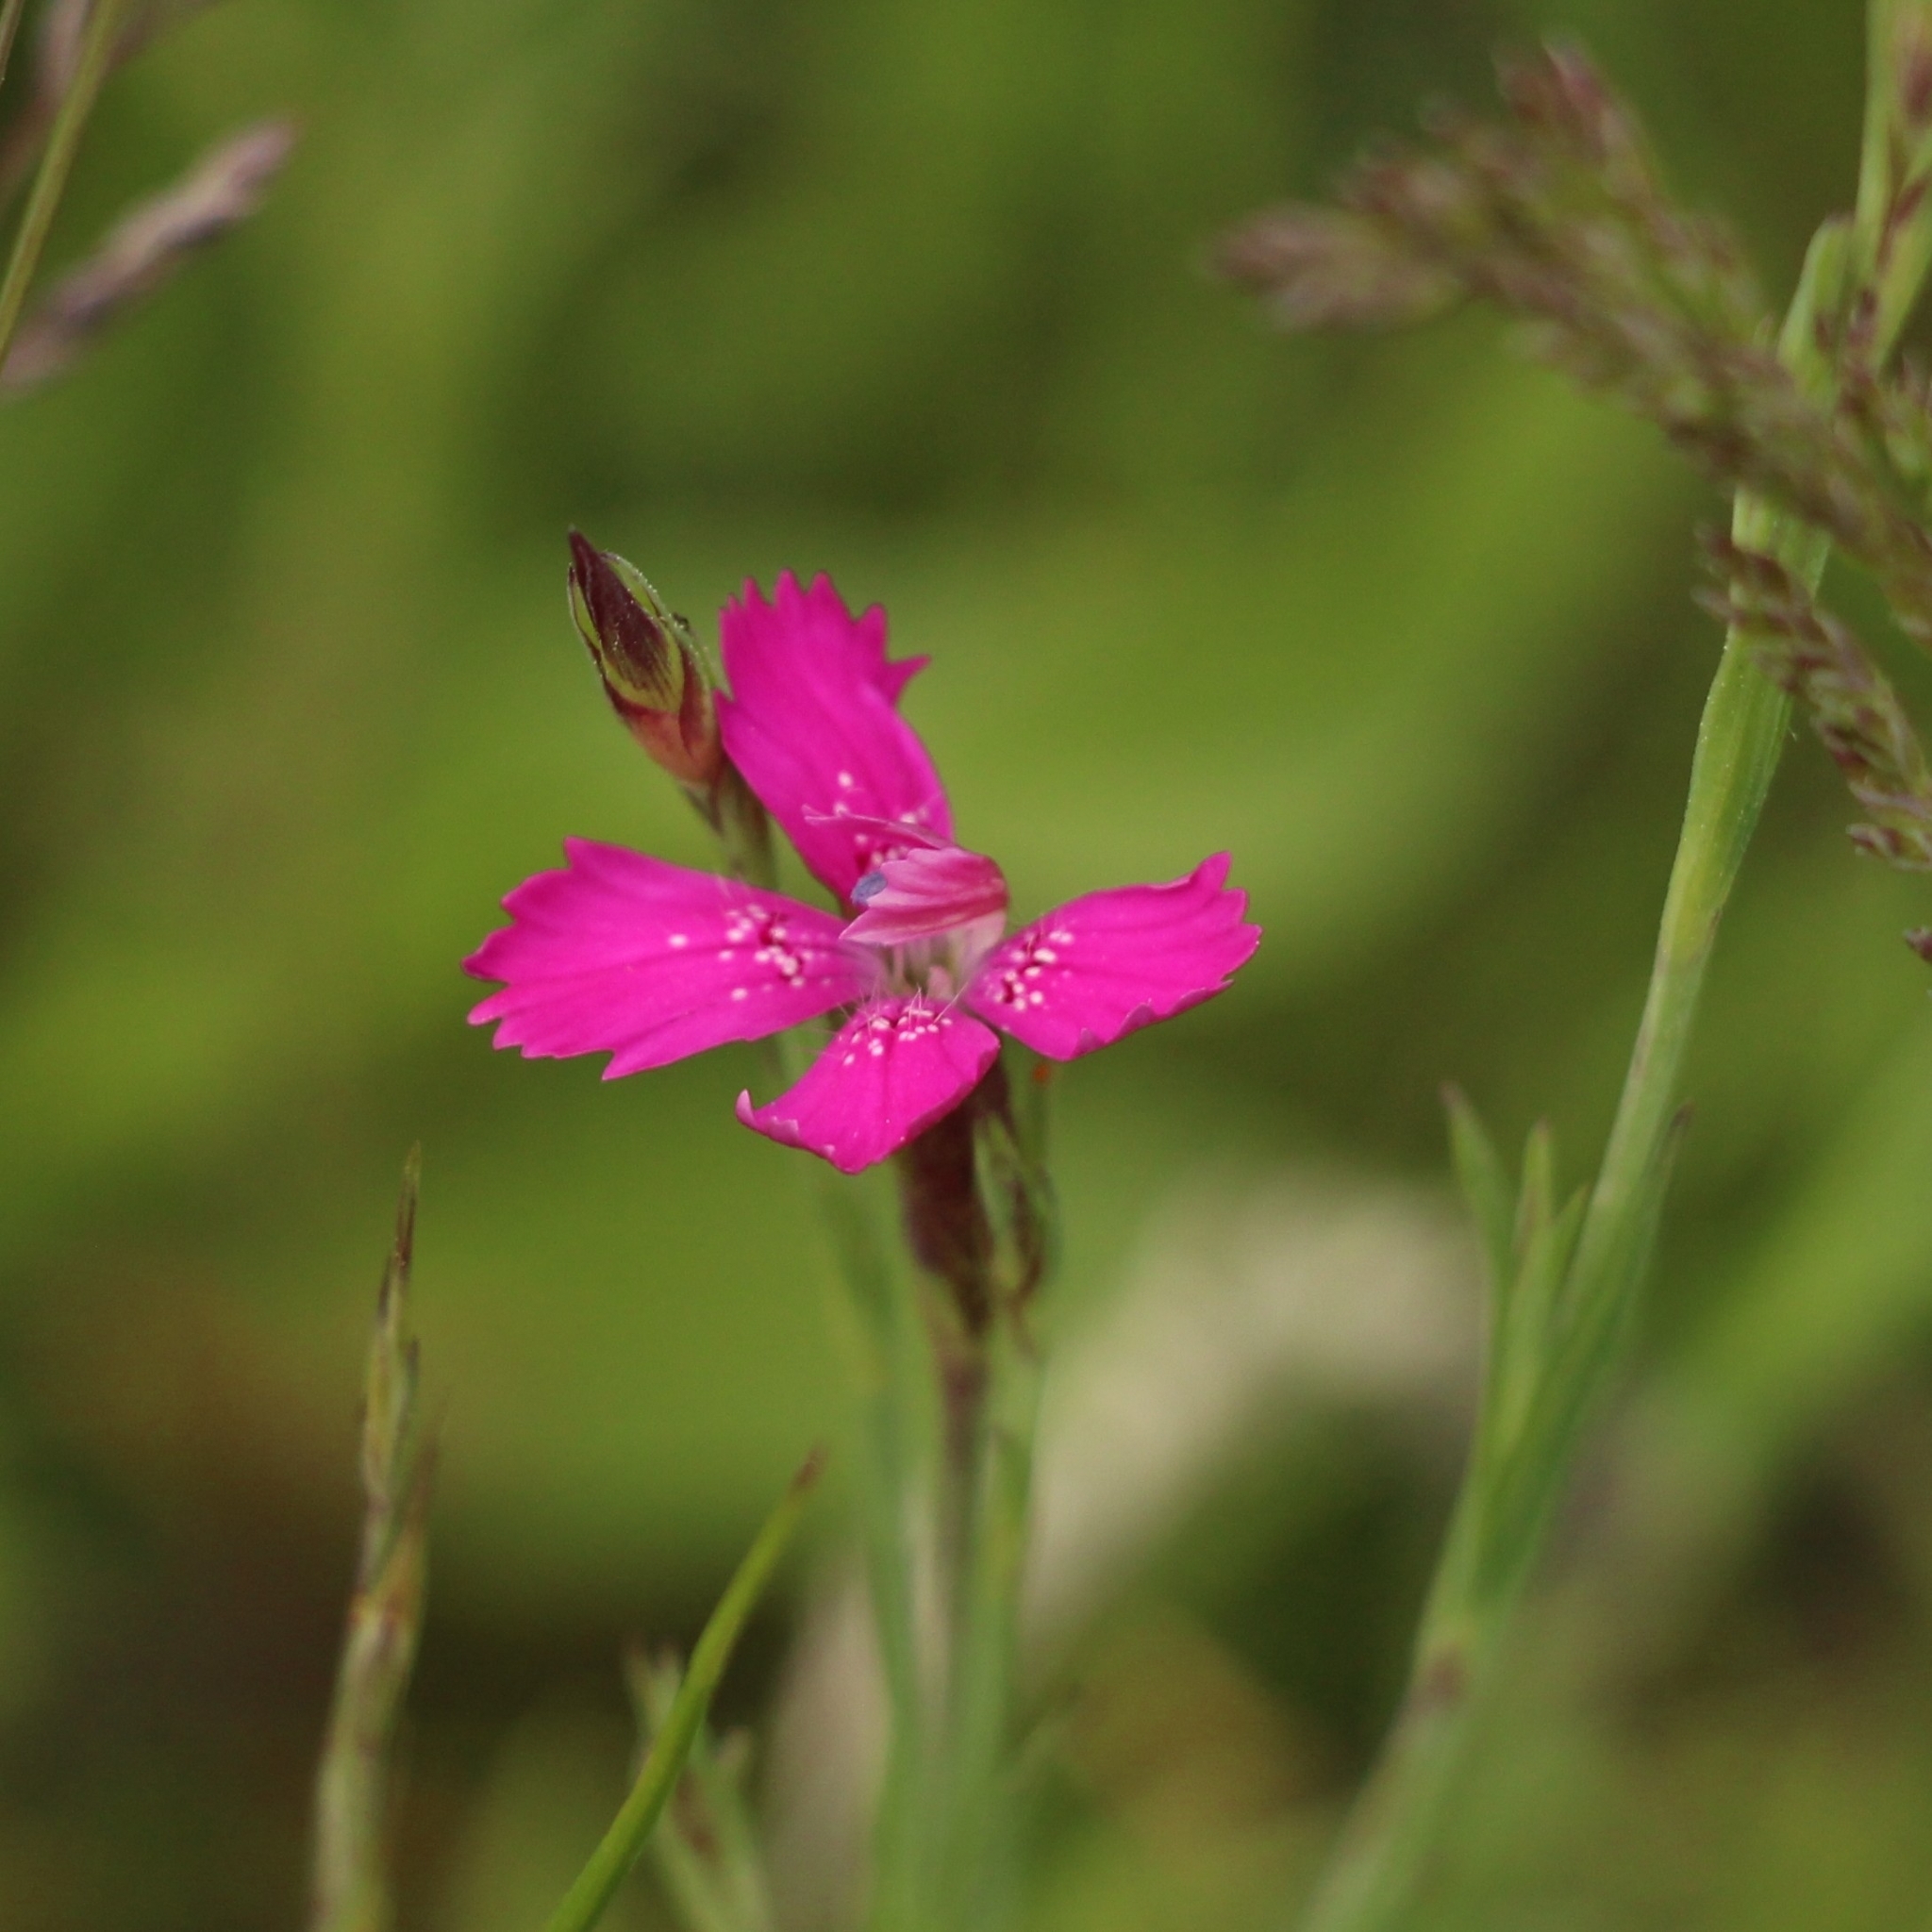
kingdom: Plantae
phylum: Tracheophyta
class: Magnoliopsida
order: Caryophyllales
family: Caryophyllaceae
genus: Dianthus
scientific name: Dianthus deltoides
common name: Maiden pink
